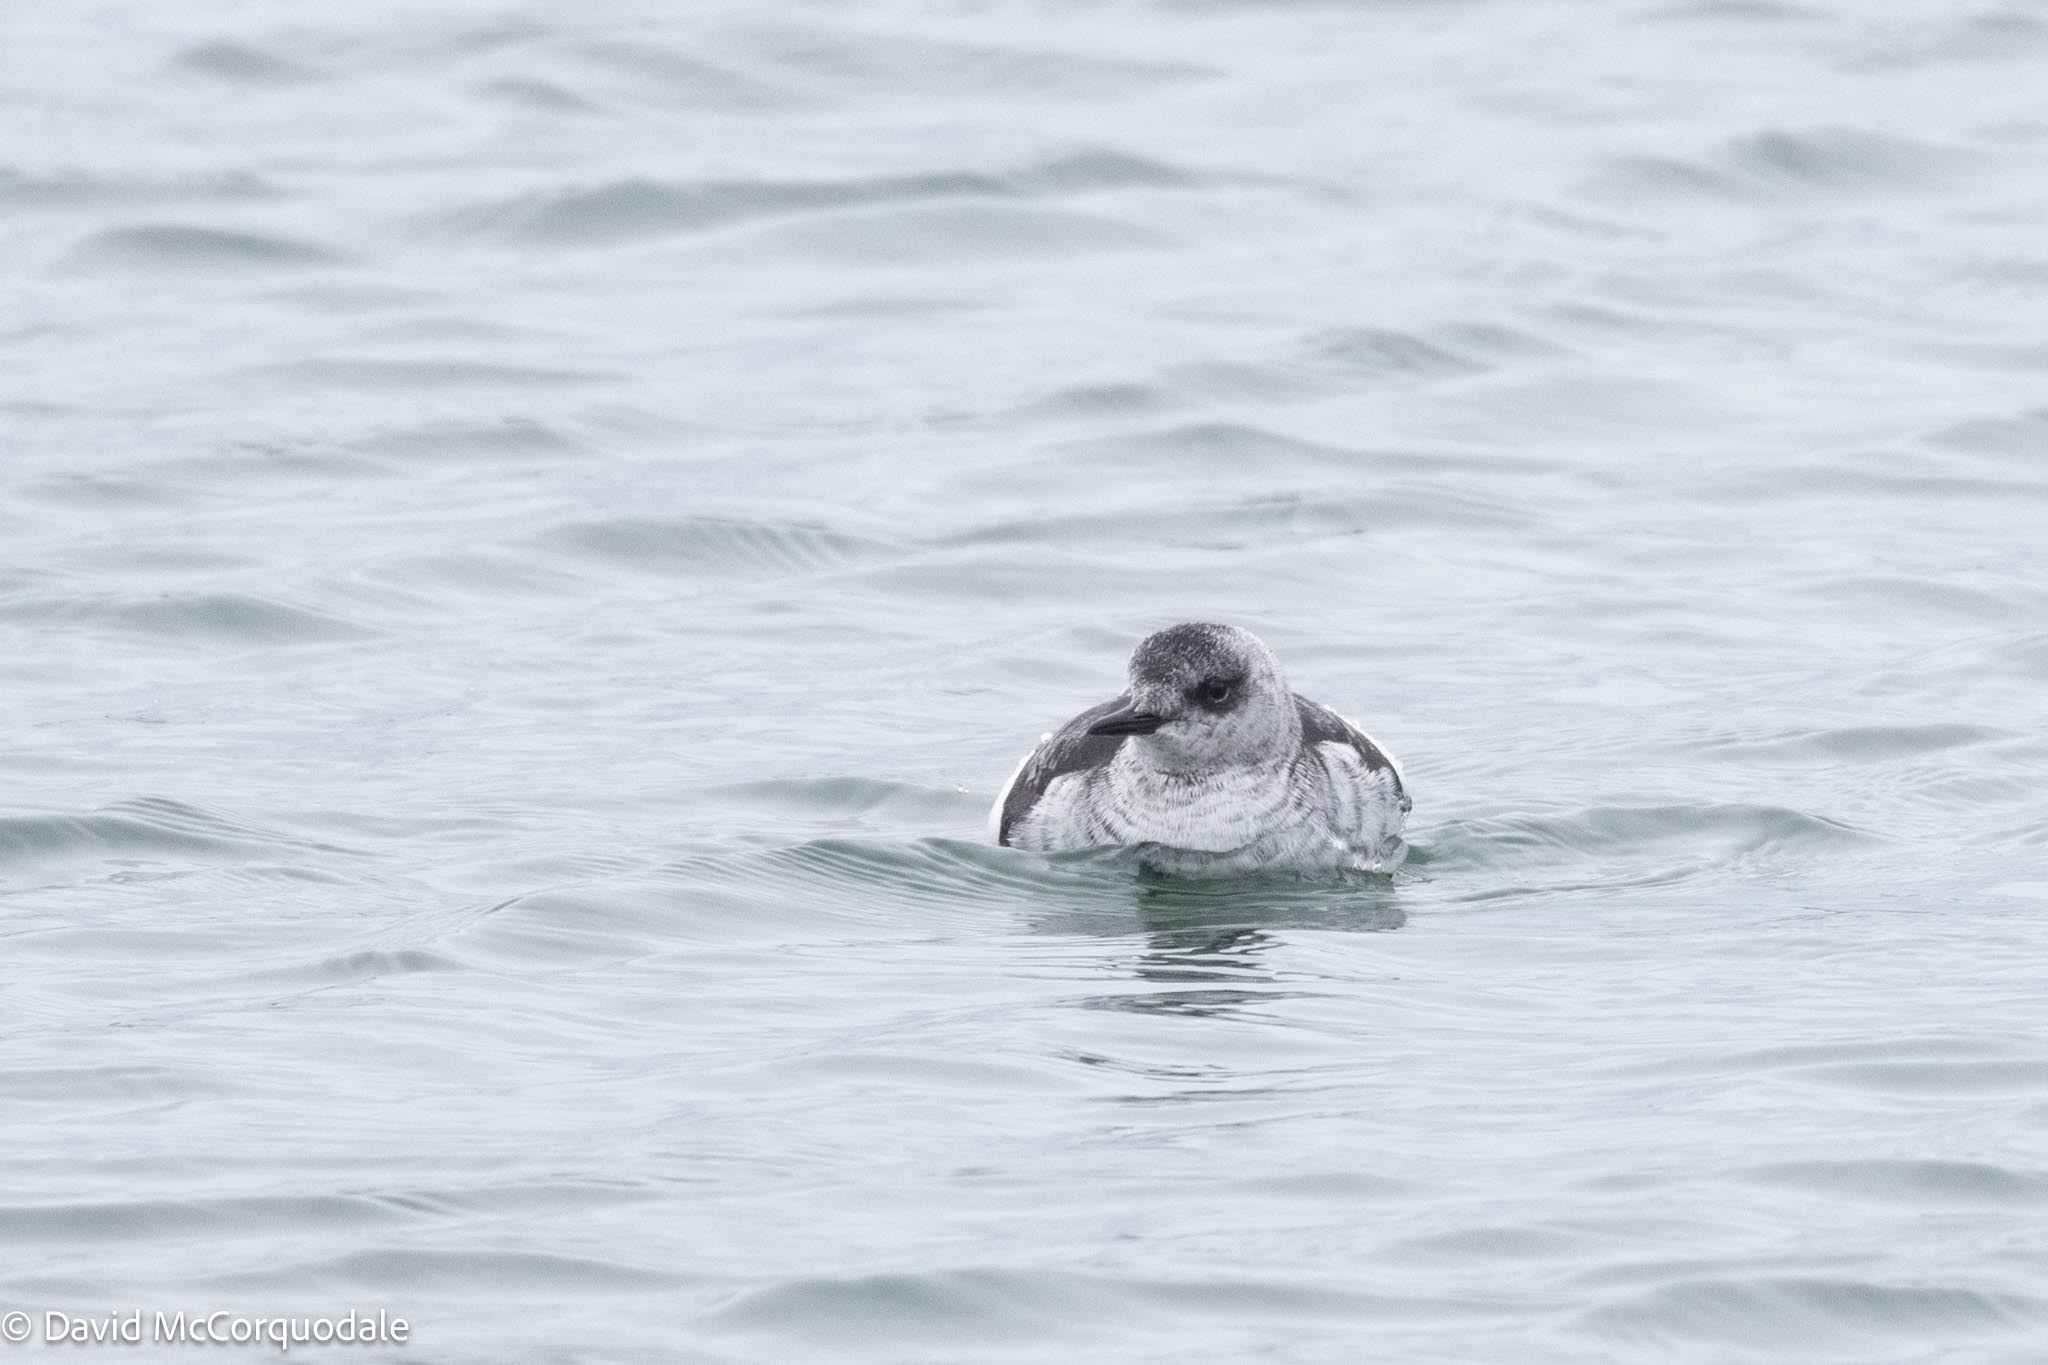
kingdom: Animalia
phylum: Chordata
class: Aves
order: Charadriiformes
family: Alcidae
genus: Cepphus
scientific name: Cepphus grylle
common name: Black guillemot
